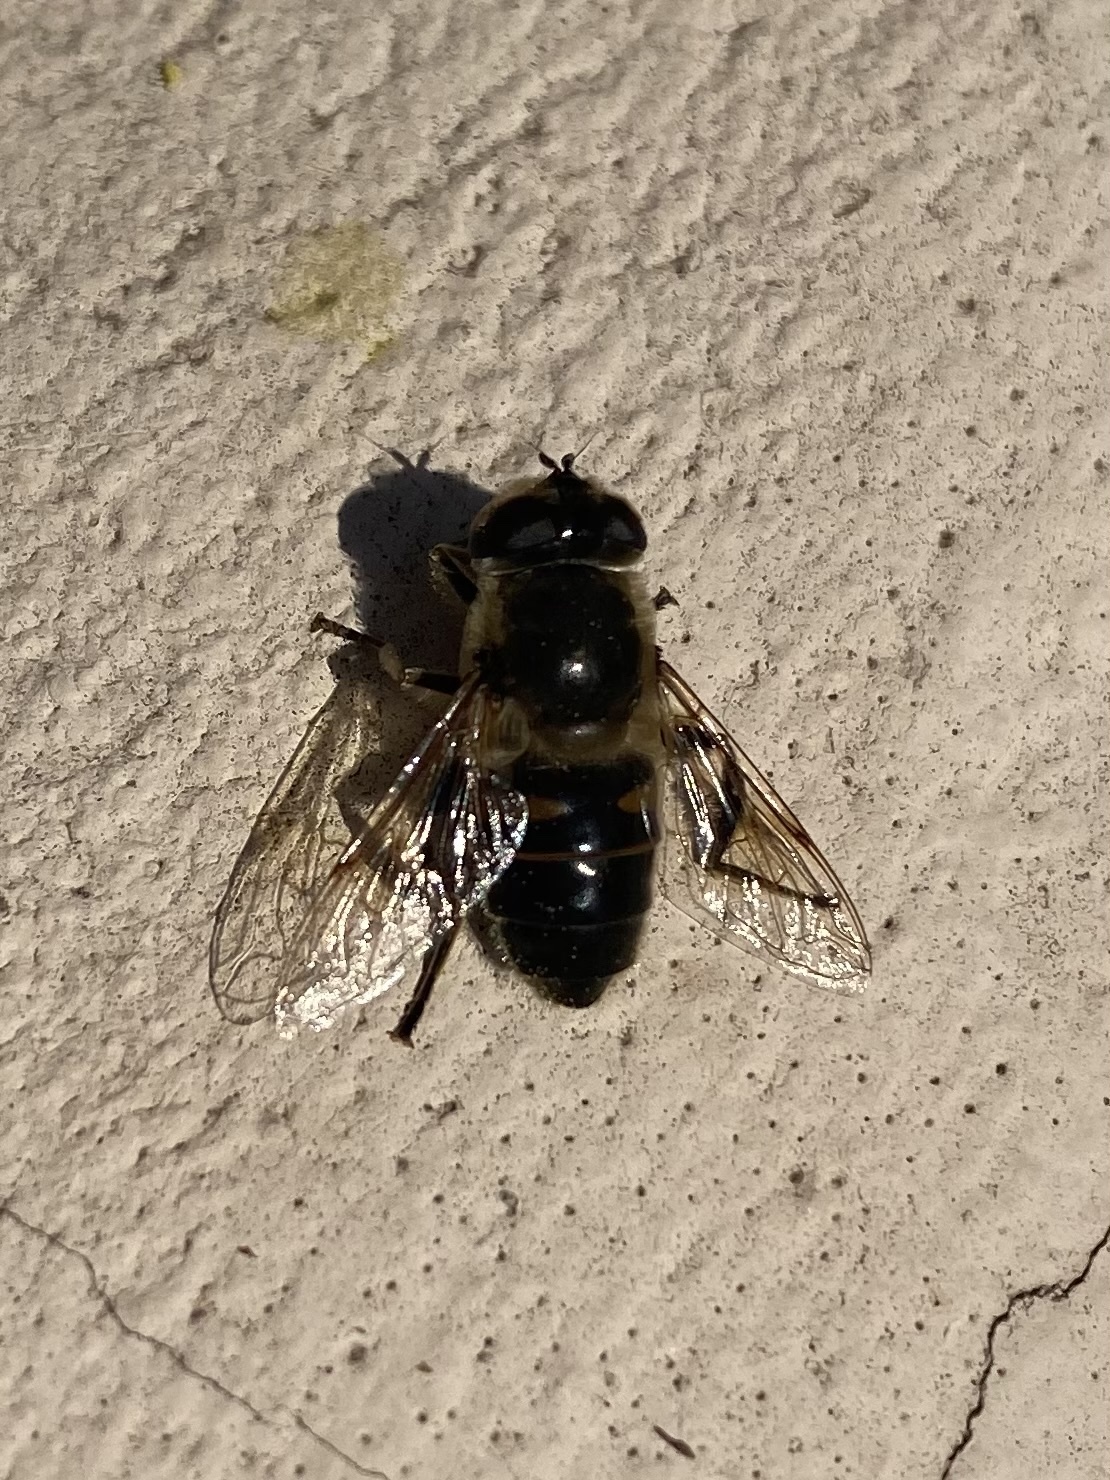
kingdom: Animalia
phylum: Arthropoda
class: Insecta
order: Diptera
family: Syrphidae
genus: Eristalis
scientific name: Eristalis tenax
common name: Drone fly
